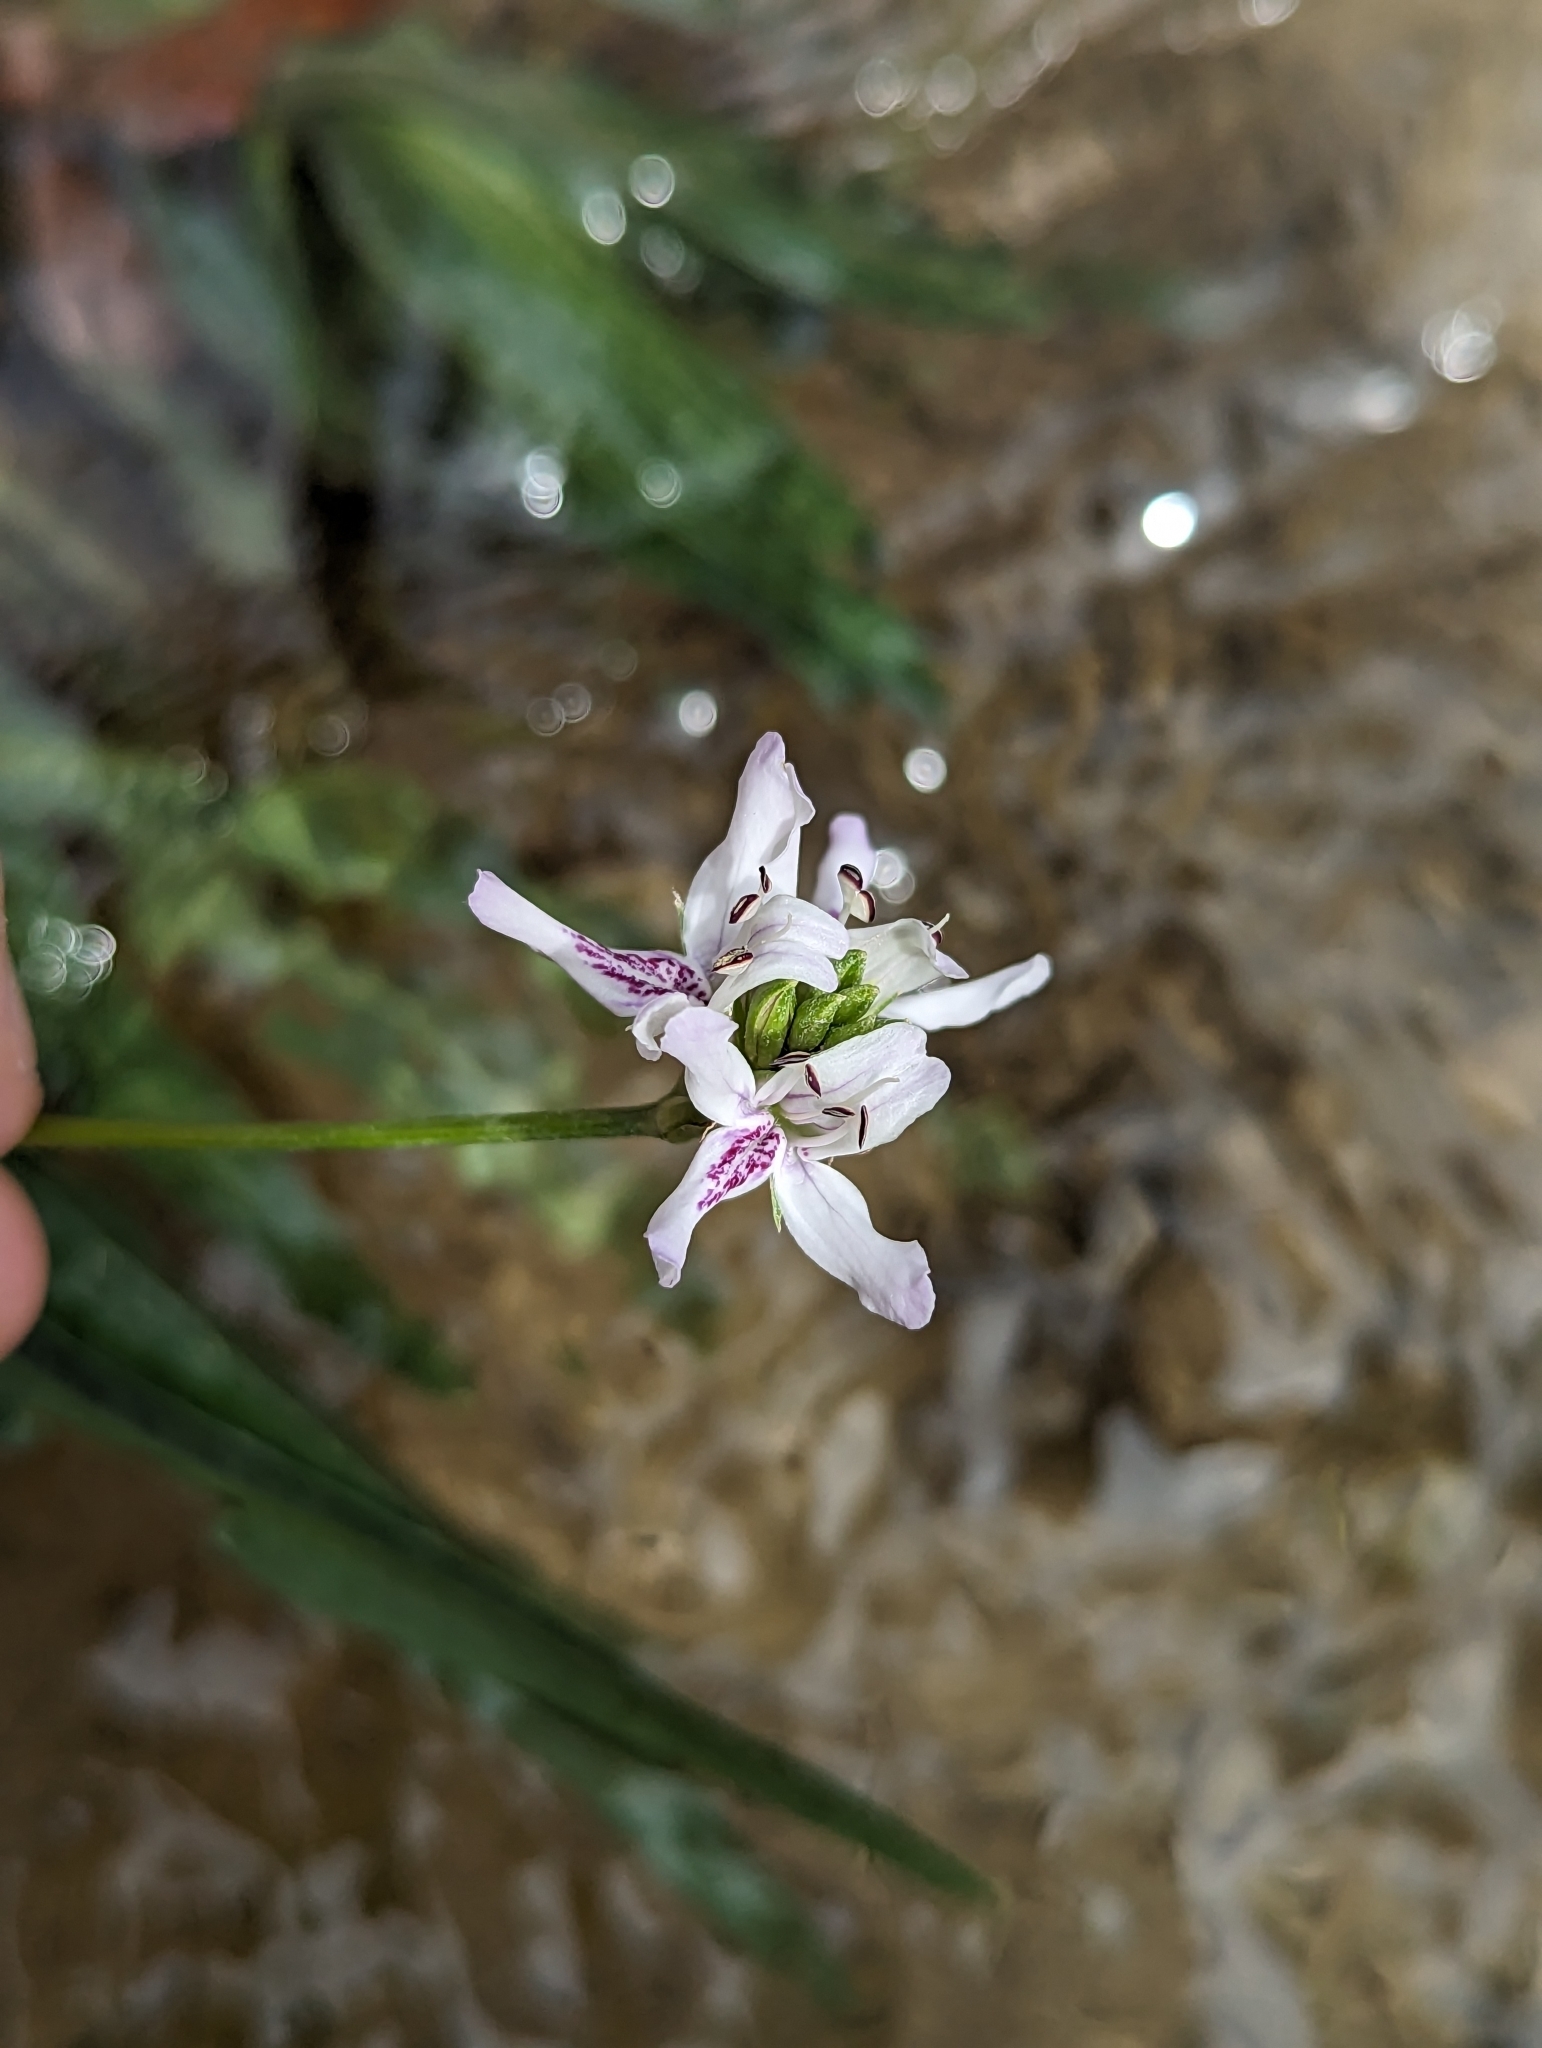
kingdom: Plantae
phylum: Tracheophyta
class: Magnoliopsida
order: Lamiales
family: Acanthaceae
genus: Dianthera
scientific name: Dianthera americana
